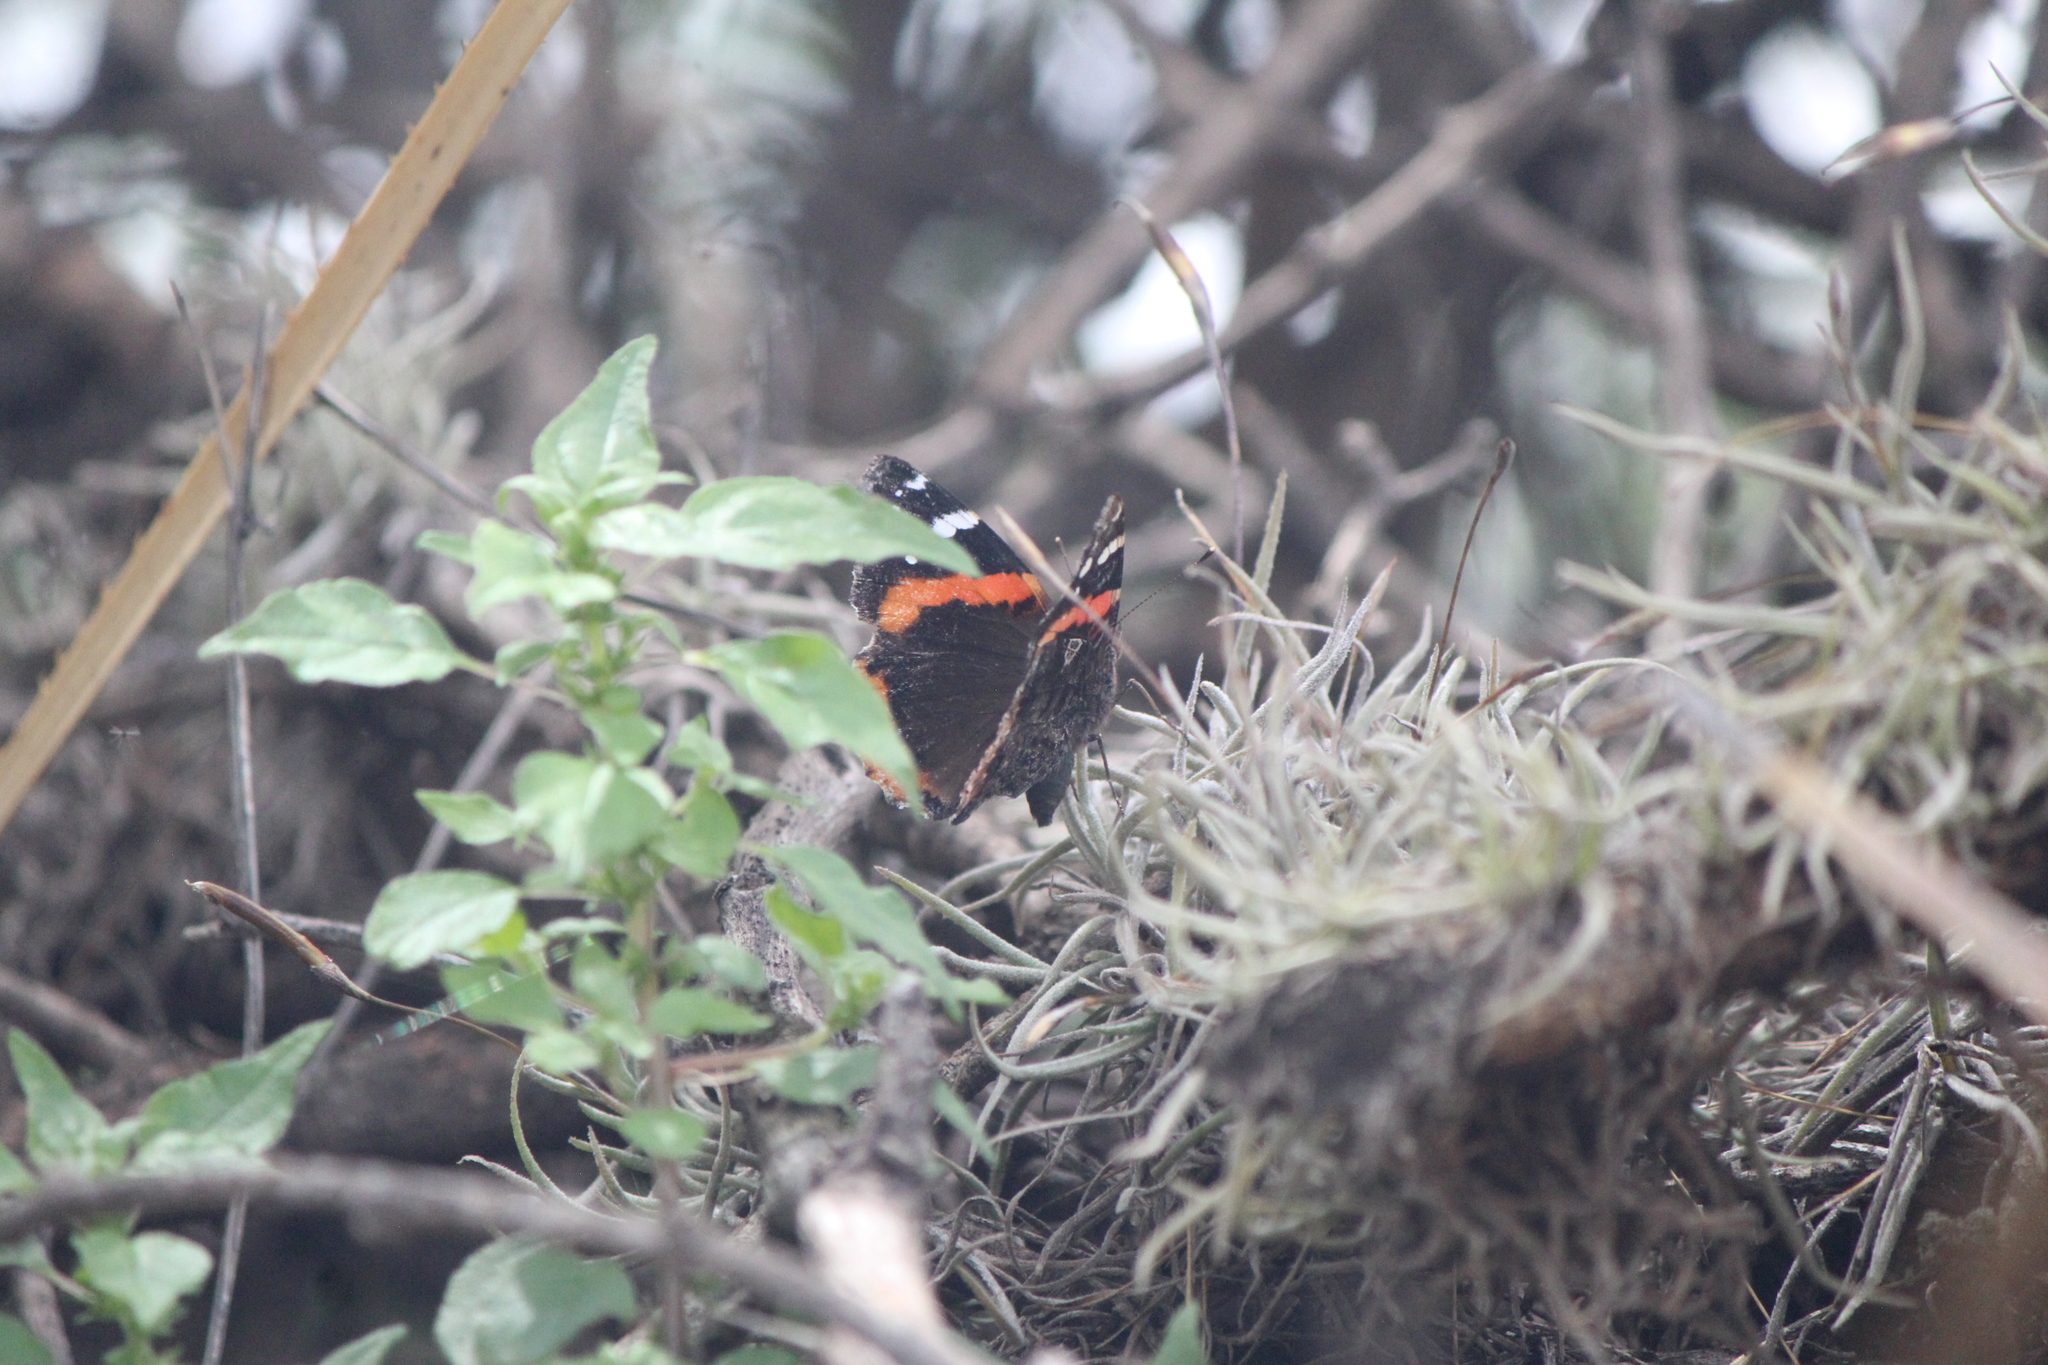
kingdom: Animalia
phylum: Arthropoda
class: Insecta
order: Lepidoptera
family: Nymphalidae
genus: Vanessa
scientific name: Vanessa atalanta
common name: Red admiral
